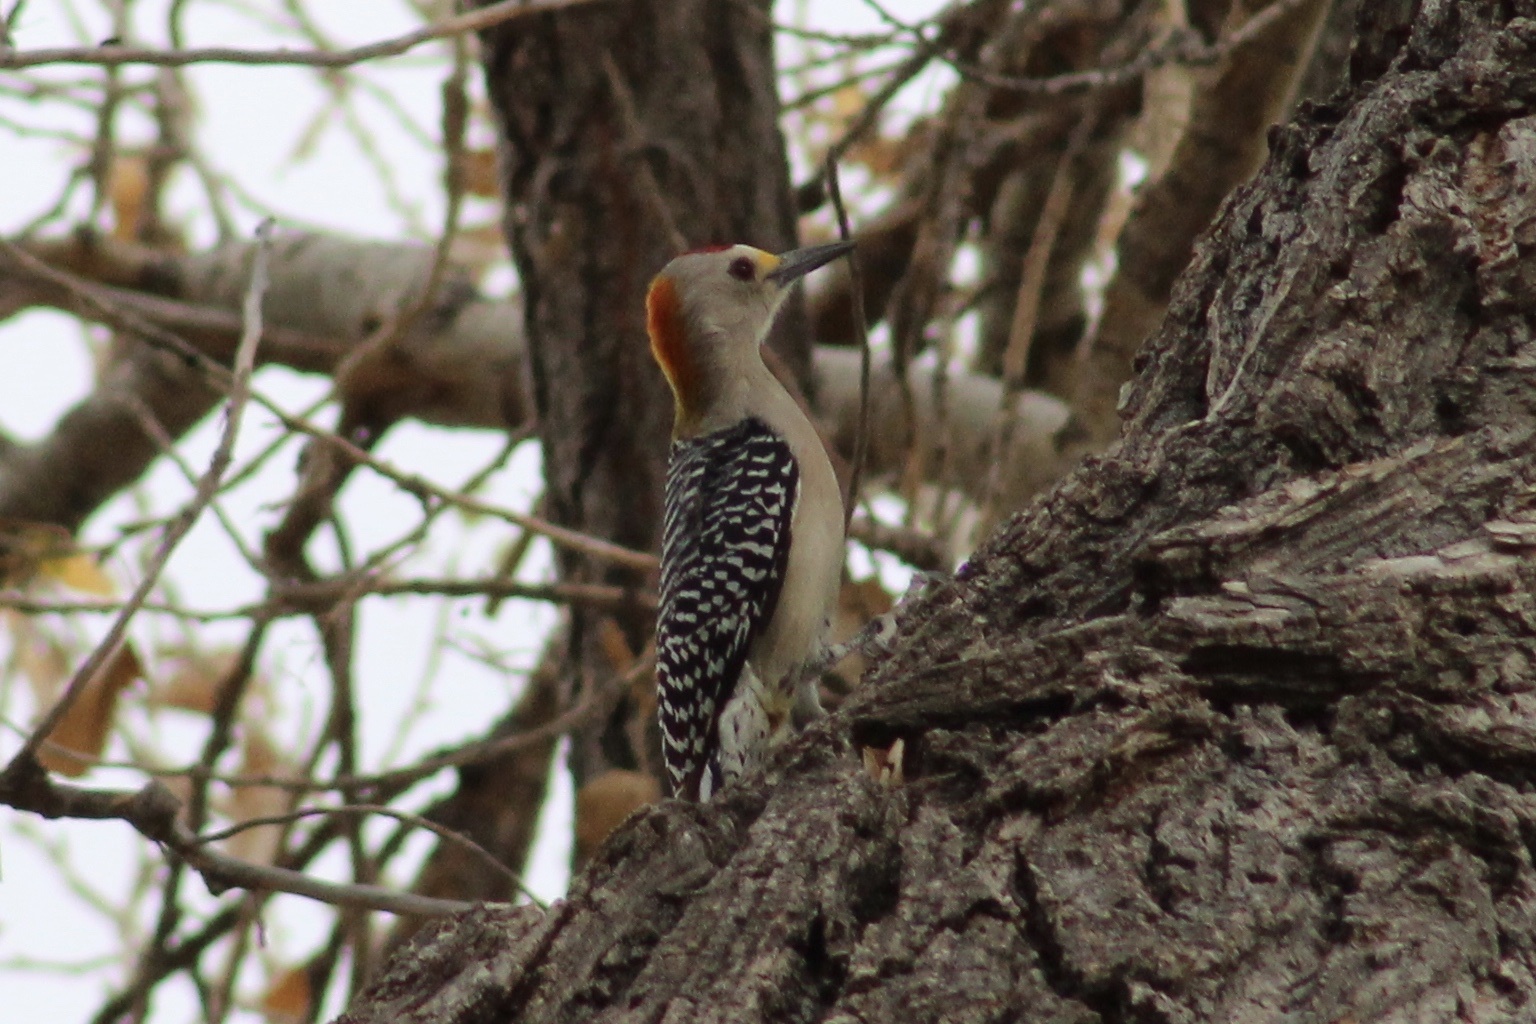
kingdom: Animalia
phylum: Chordata
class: Aves
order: Piciformes
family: Picidae
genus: Melanerpes
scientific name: Melanerpes aurifrons
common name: Golden-fronted woodpecker
